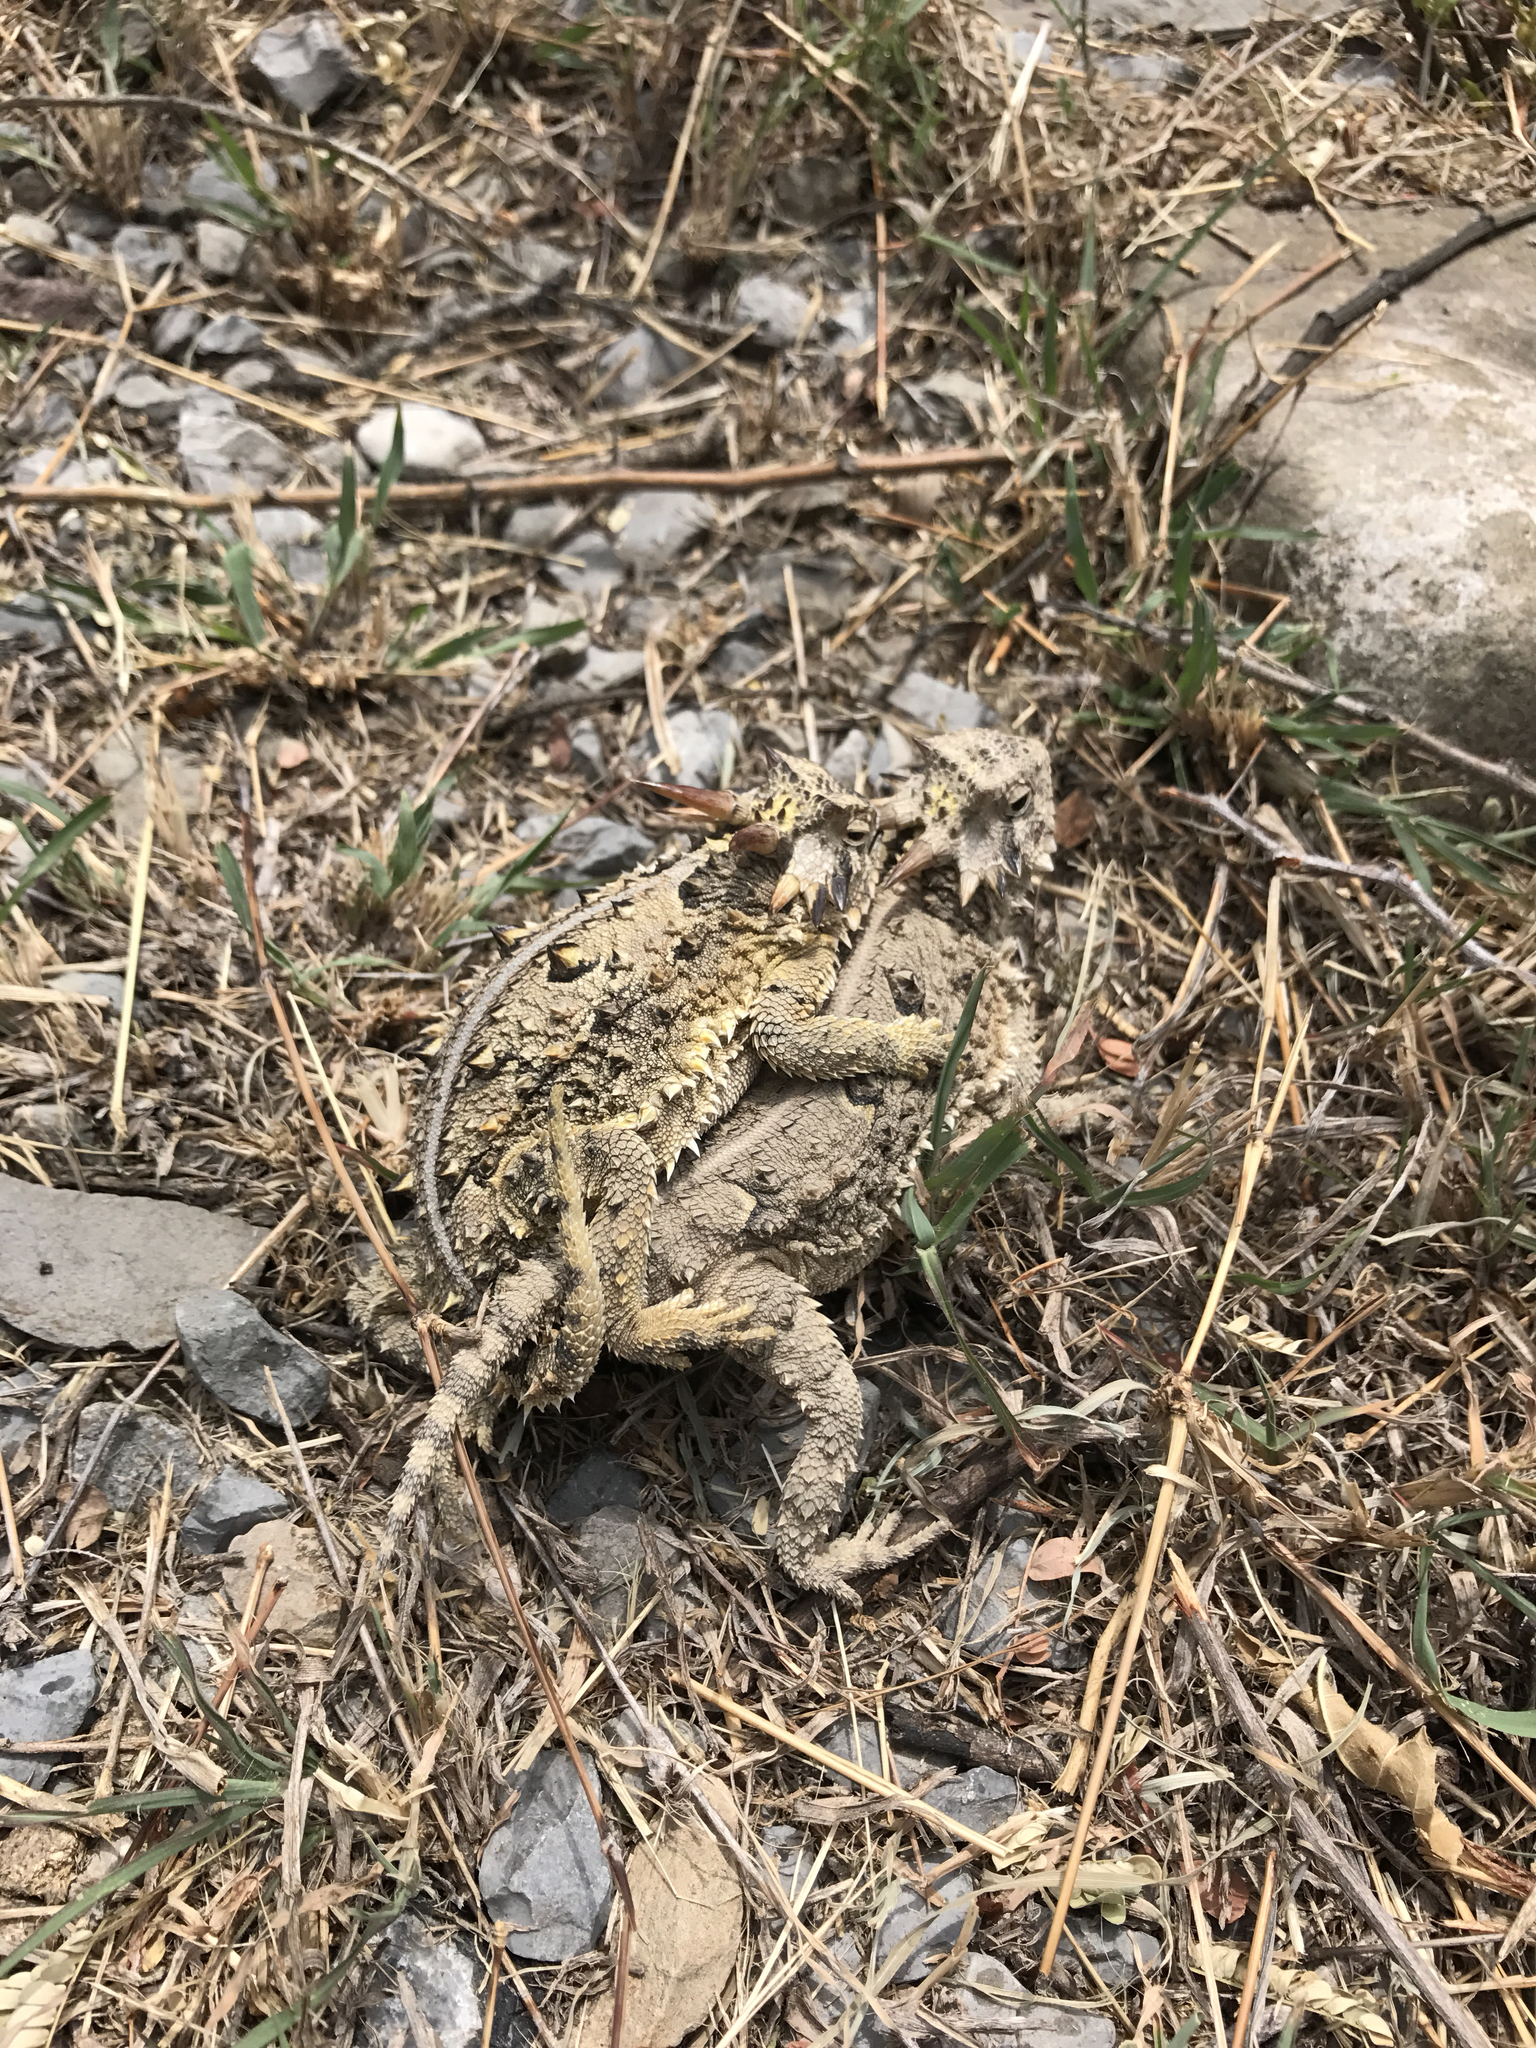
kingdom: Animalia
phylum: Chordata
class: Squamata
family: Phrynosomatidae
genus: Phrynosoma
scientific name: Phrynosoma cornutum
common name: Texas horned lizard
